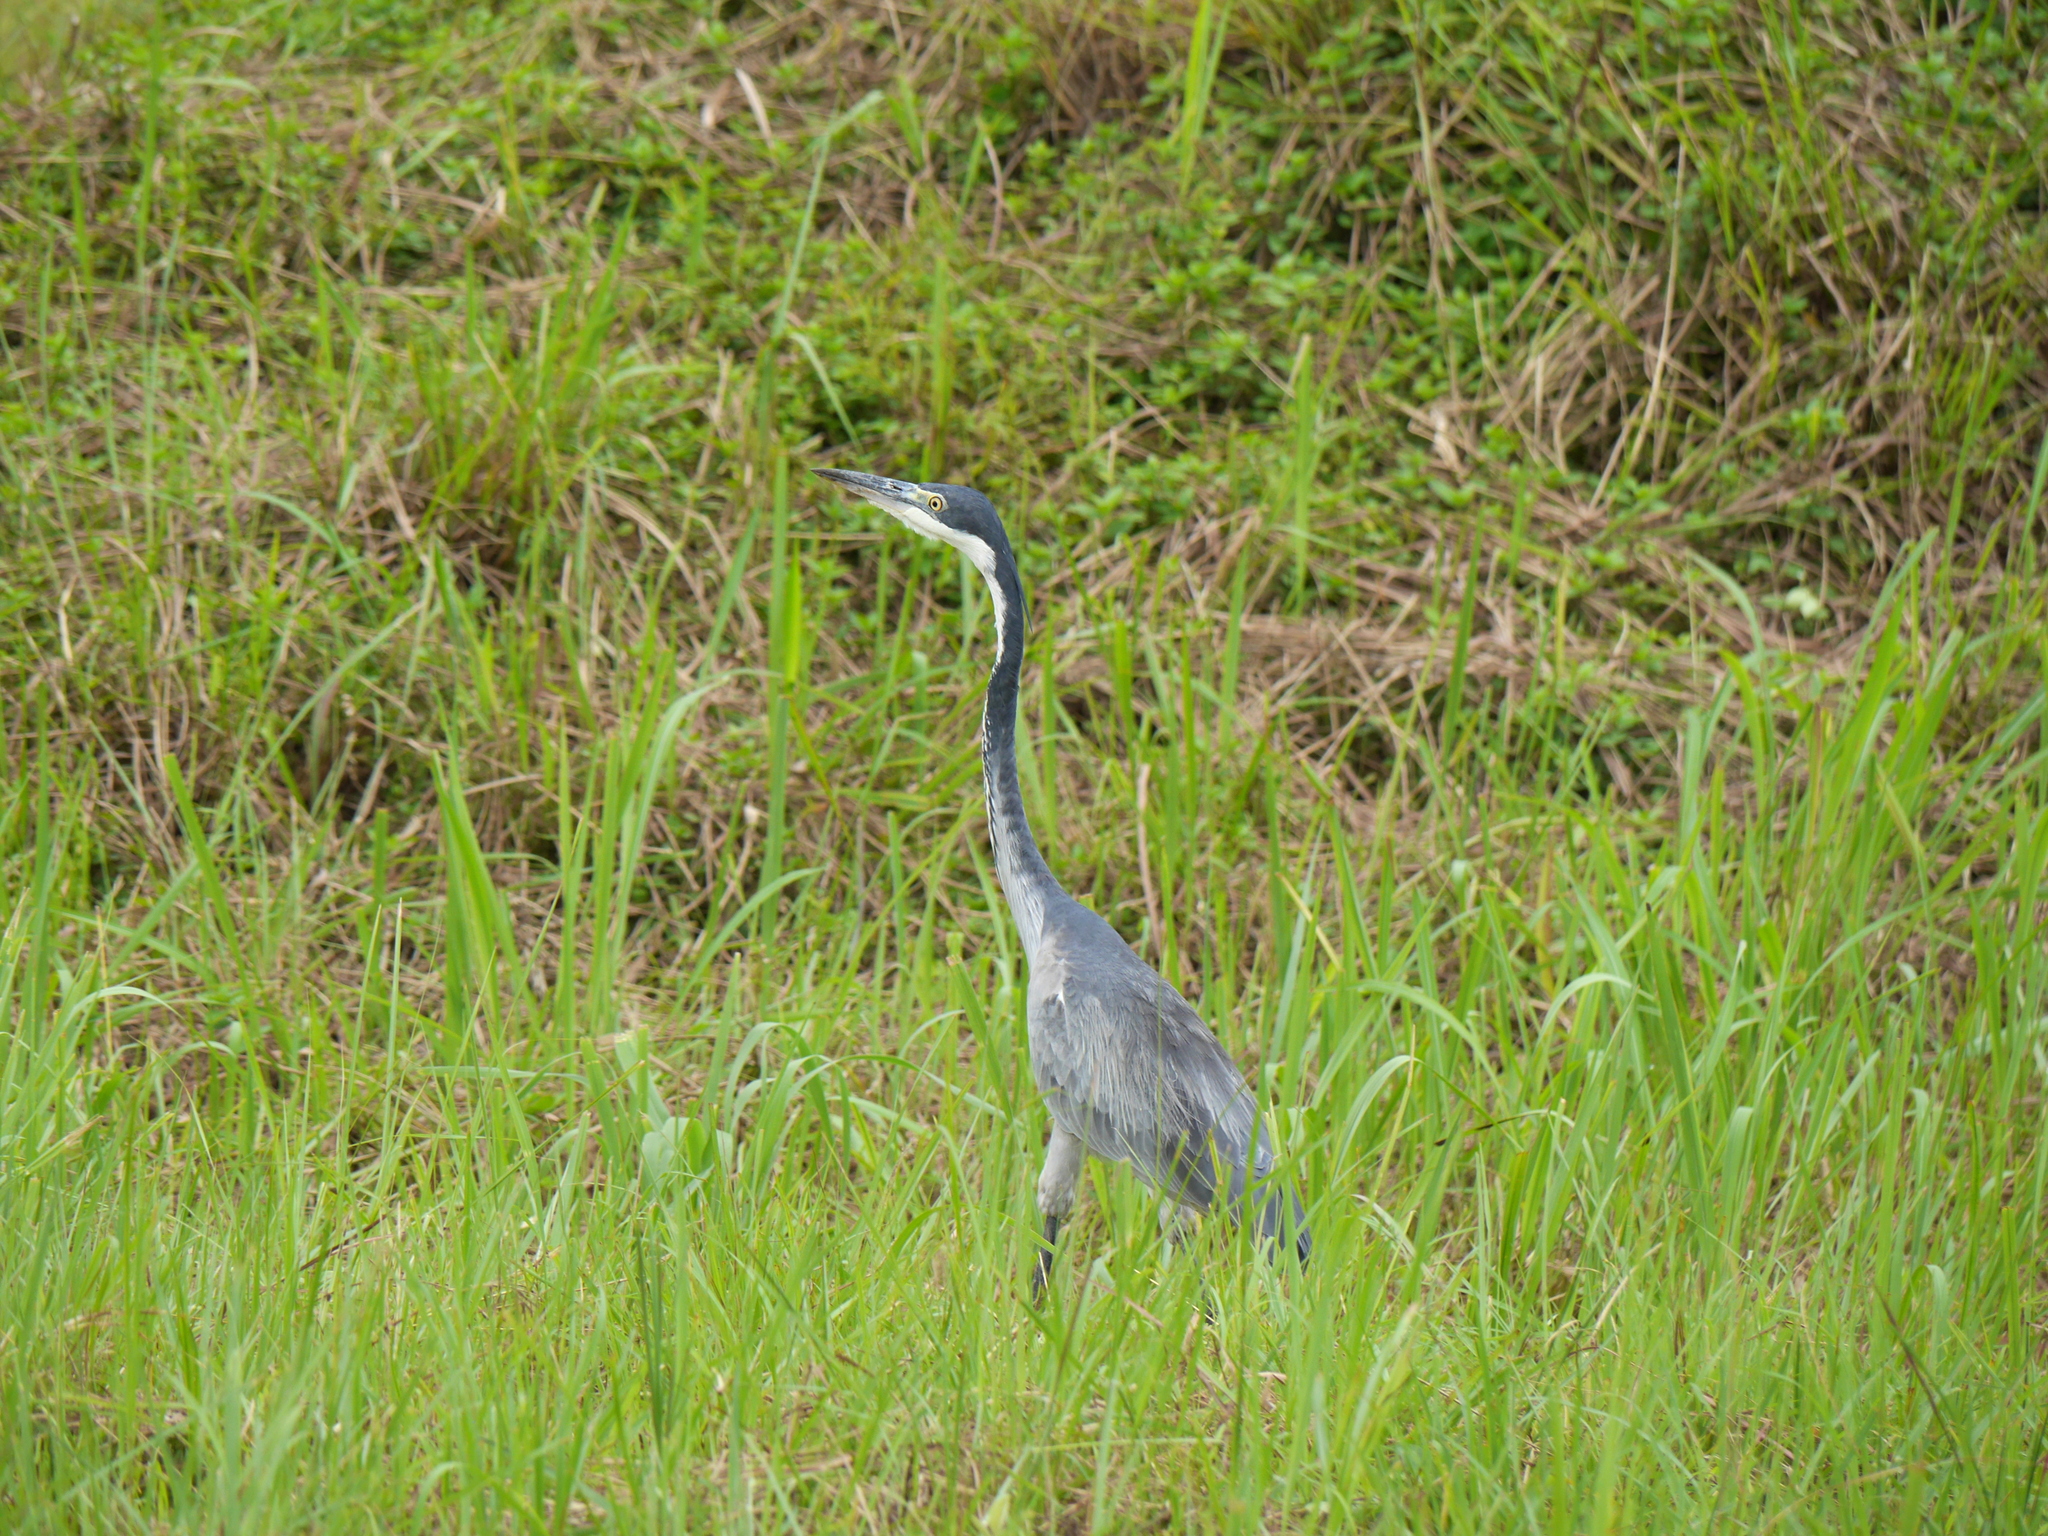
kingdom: Animalia
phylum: Chordata
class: Aves
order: Pelecaniformes
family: Ardeidae
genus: Ardea
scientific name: Ardea melanocephala
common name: Black-headed heron
